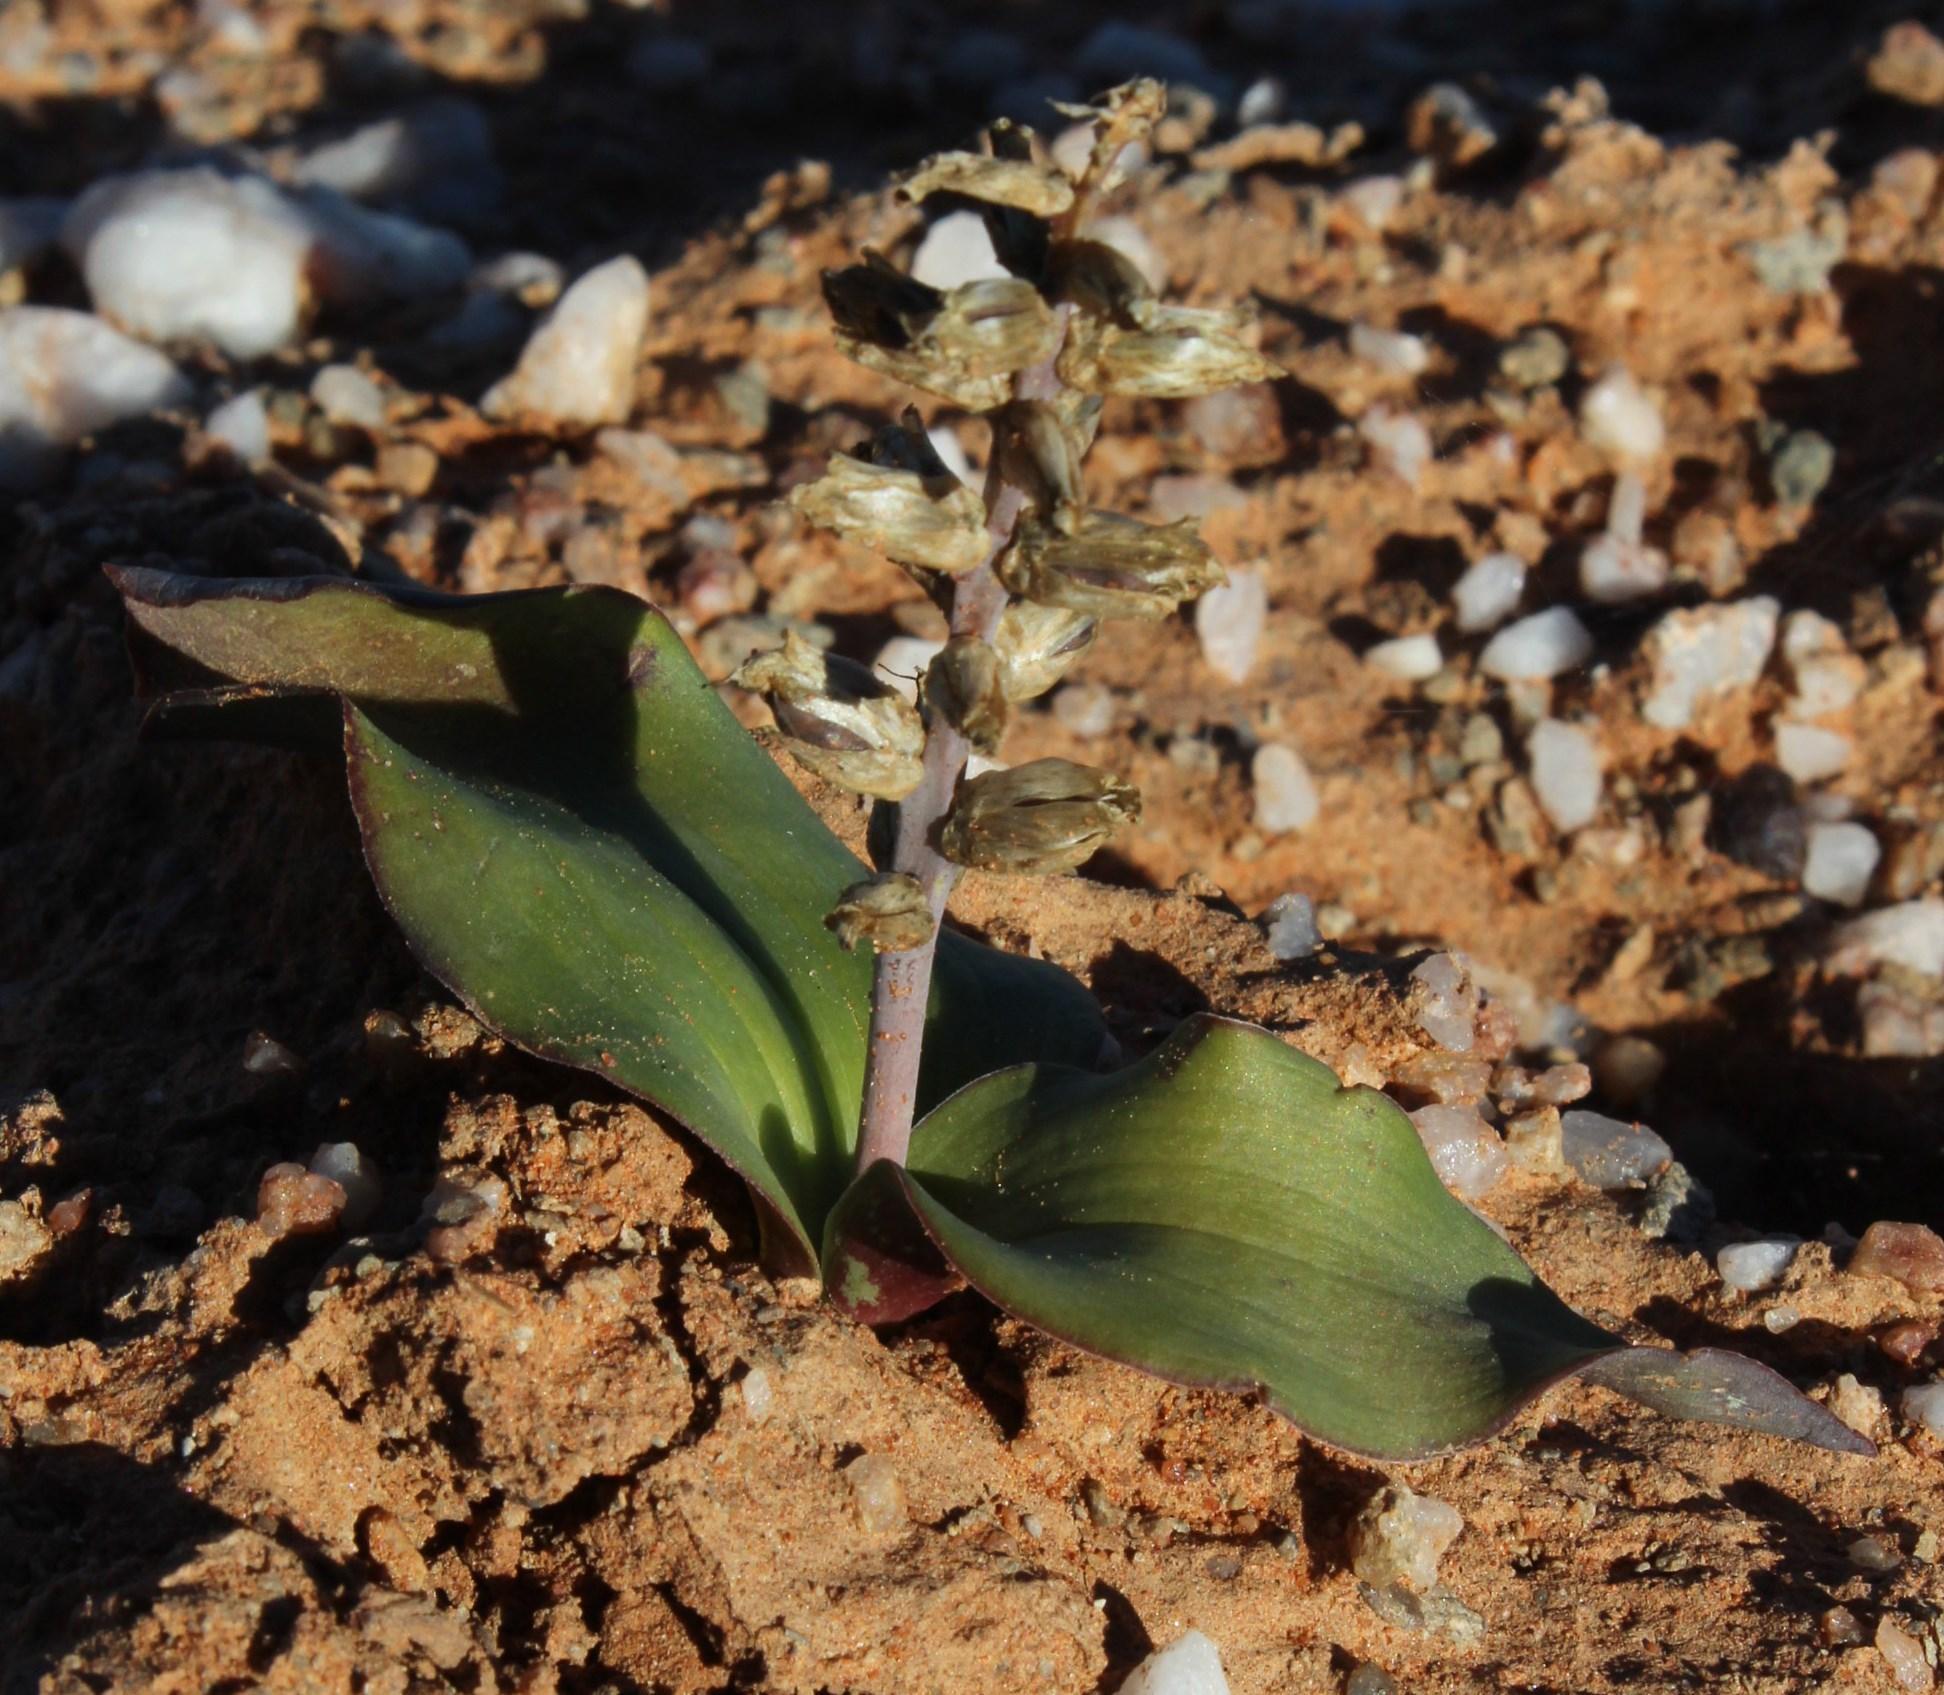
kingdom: Plantae
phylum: Tracheophyta
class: Liliopsida
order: Asparagales
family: Asparagaceae
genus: Lachenalia
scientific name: Lachenalia undulata
